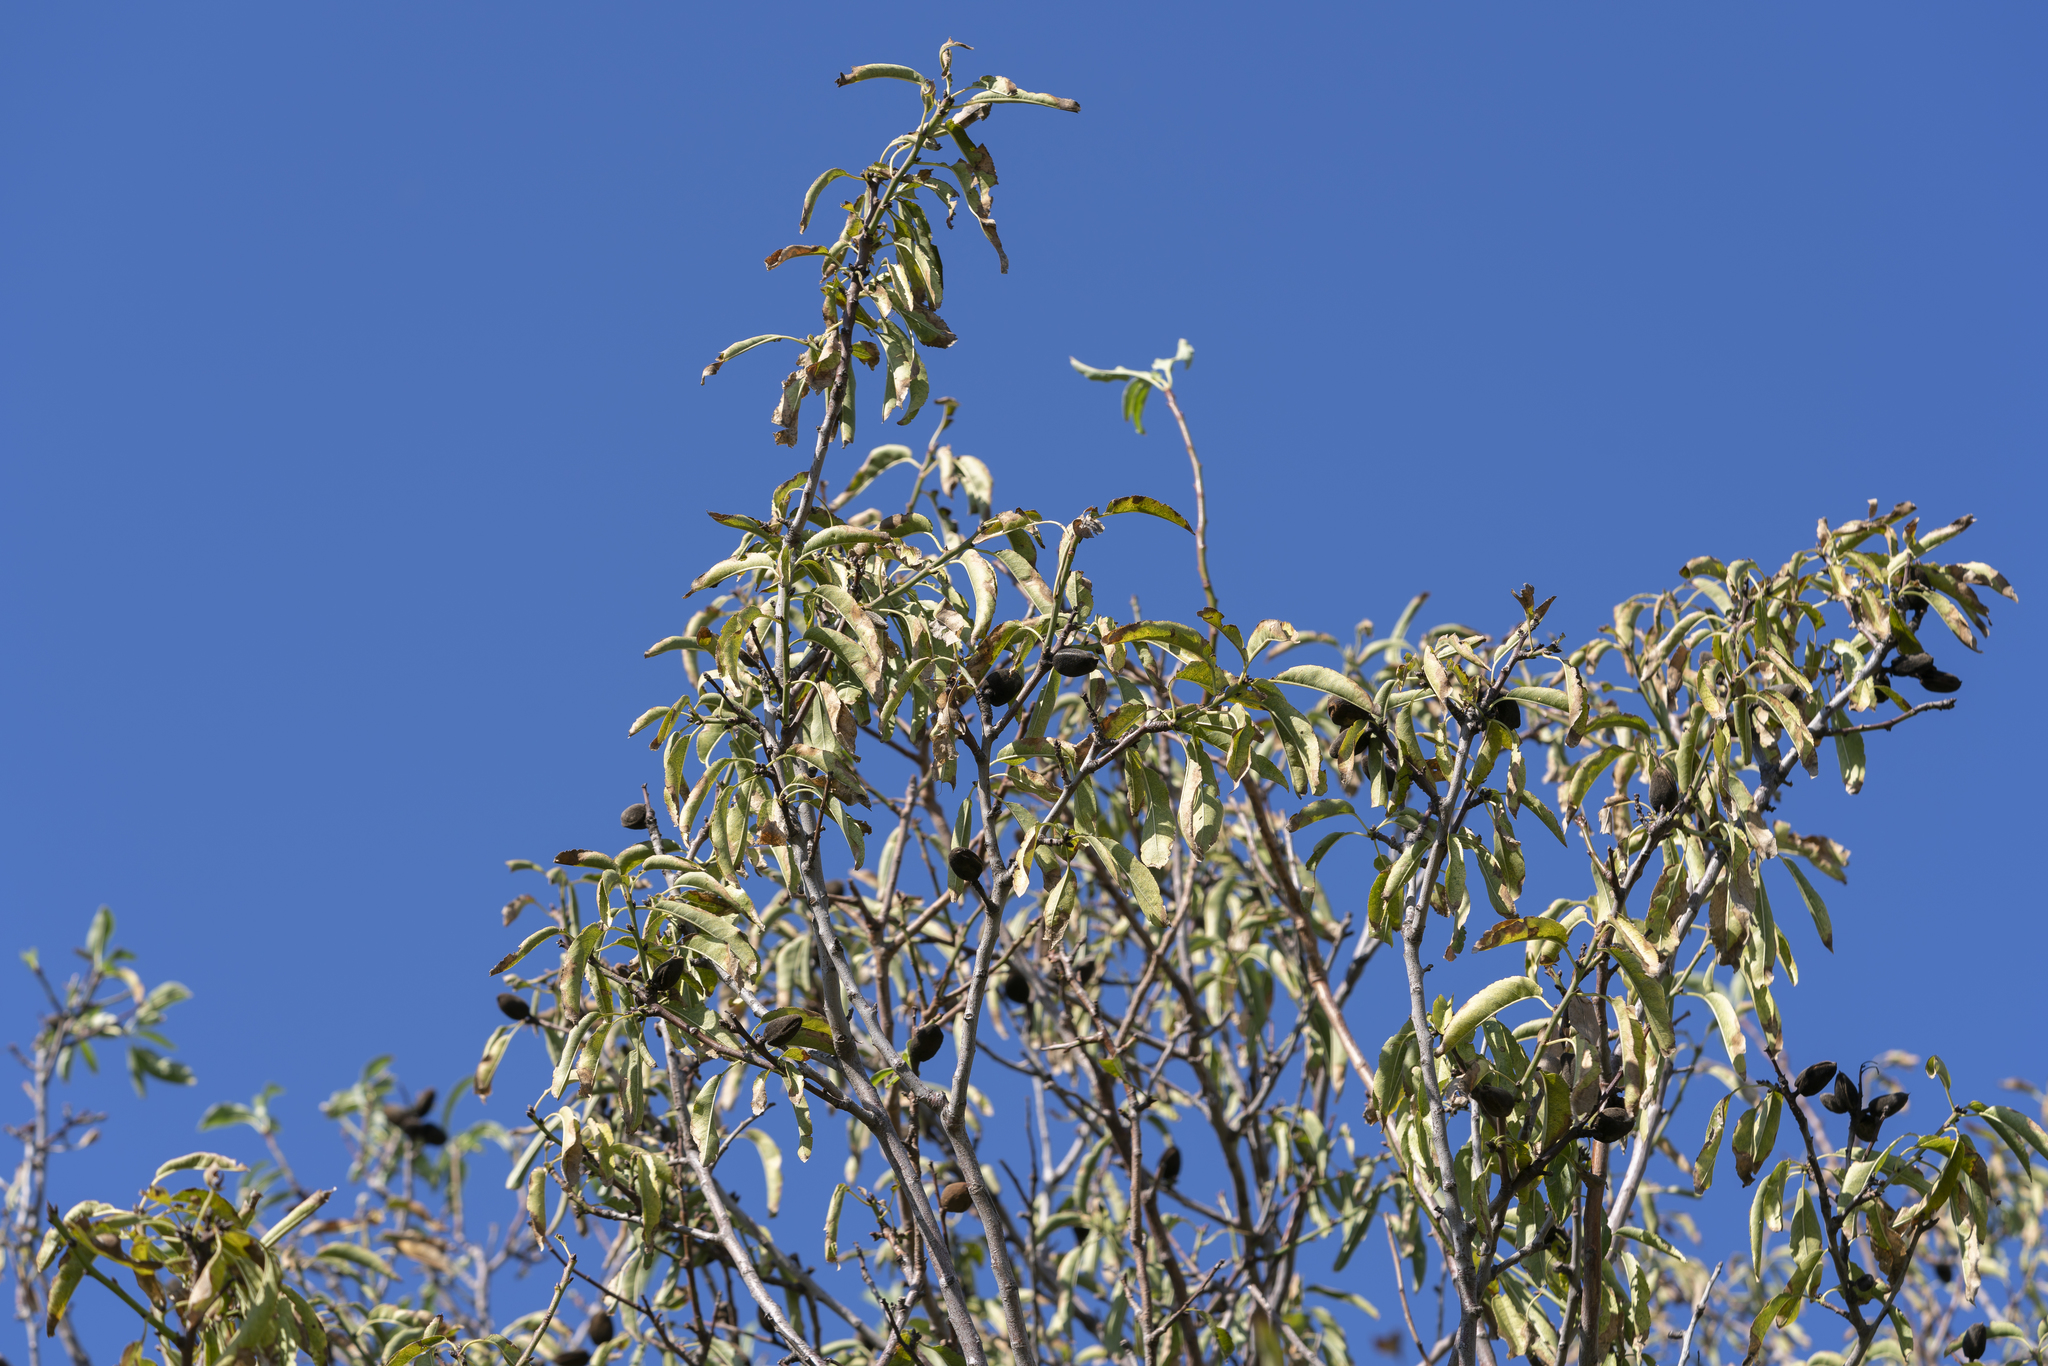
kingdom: Plantae
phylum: Tracheophyta
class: Magnoliopsida
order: Rosales
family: Rosaceae
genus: Prunus
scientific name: Prunus amygdalus
